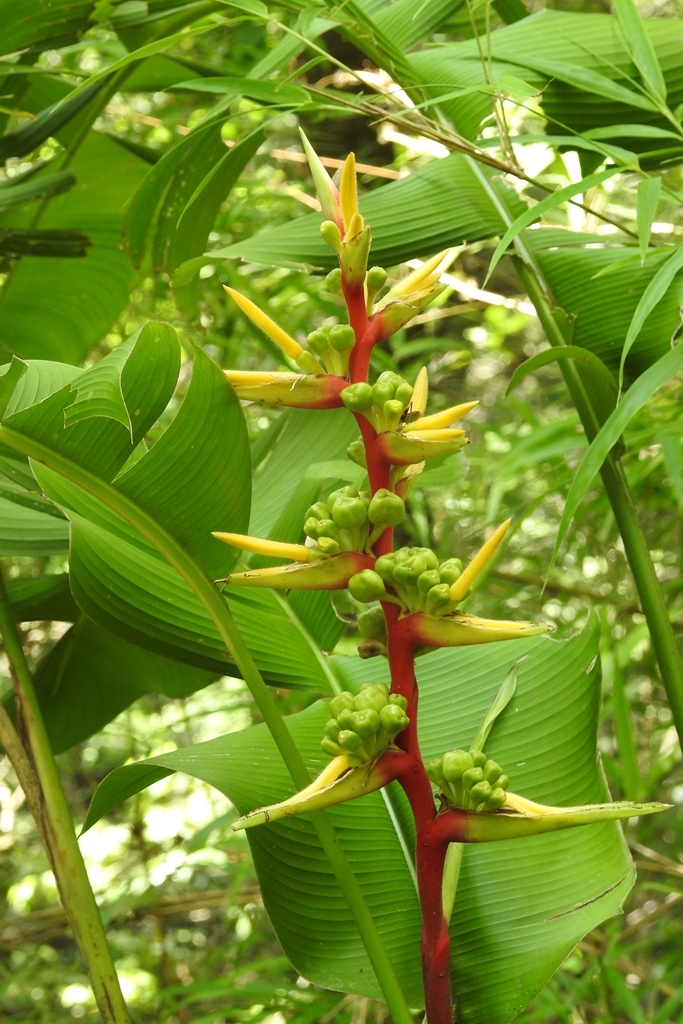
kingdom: Plantae
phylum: Tracheophyta
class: Liliopsida
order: Zingiberales
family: Heliconiaceae
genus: Heliconia
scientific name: Heliconia spissa
